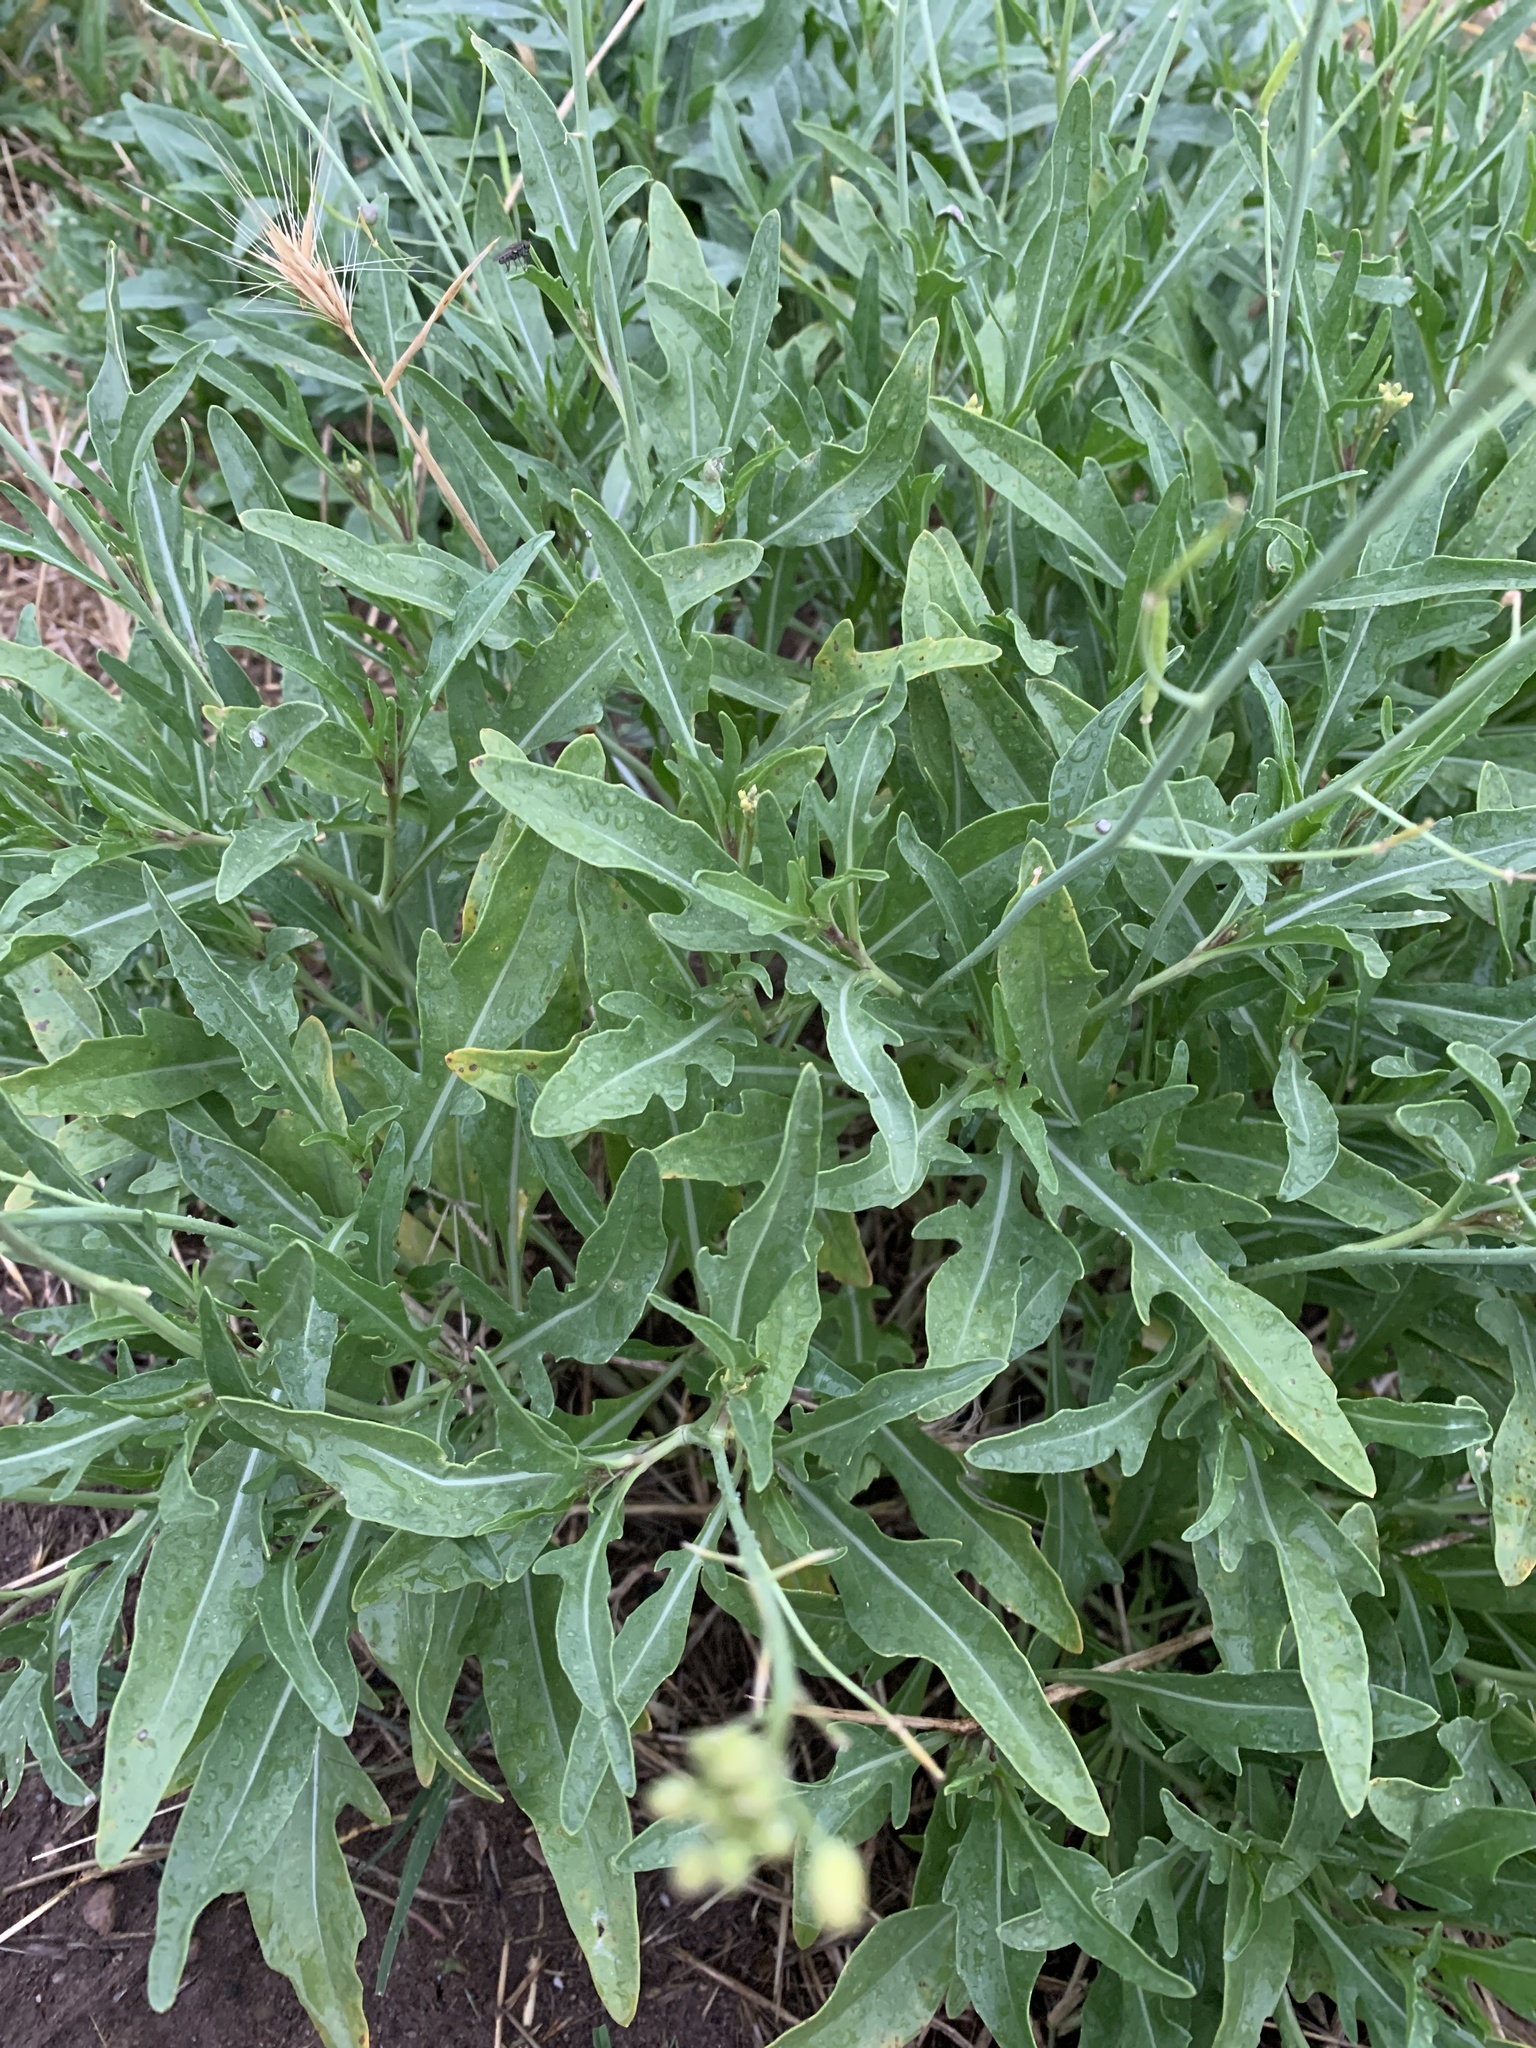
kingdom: Plantae
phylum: Tracheophyta
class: Magnoliopsida
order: Brassicales
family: Brassicaceae
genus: Diplotaxis
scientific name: Diplotaxis tenuifolia
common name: Perennial wall-rocket
